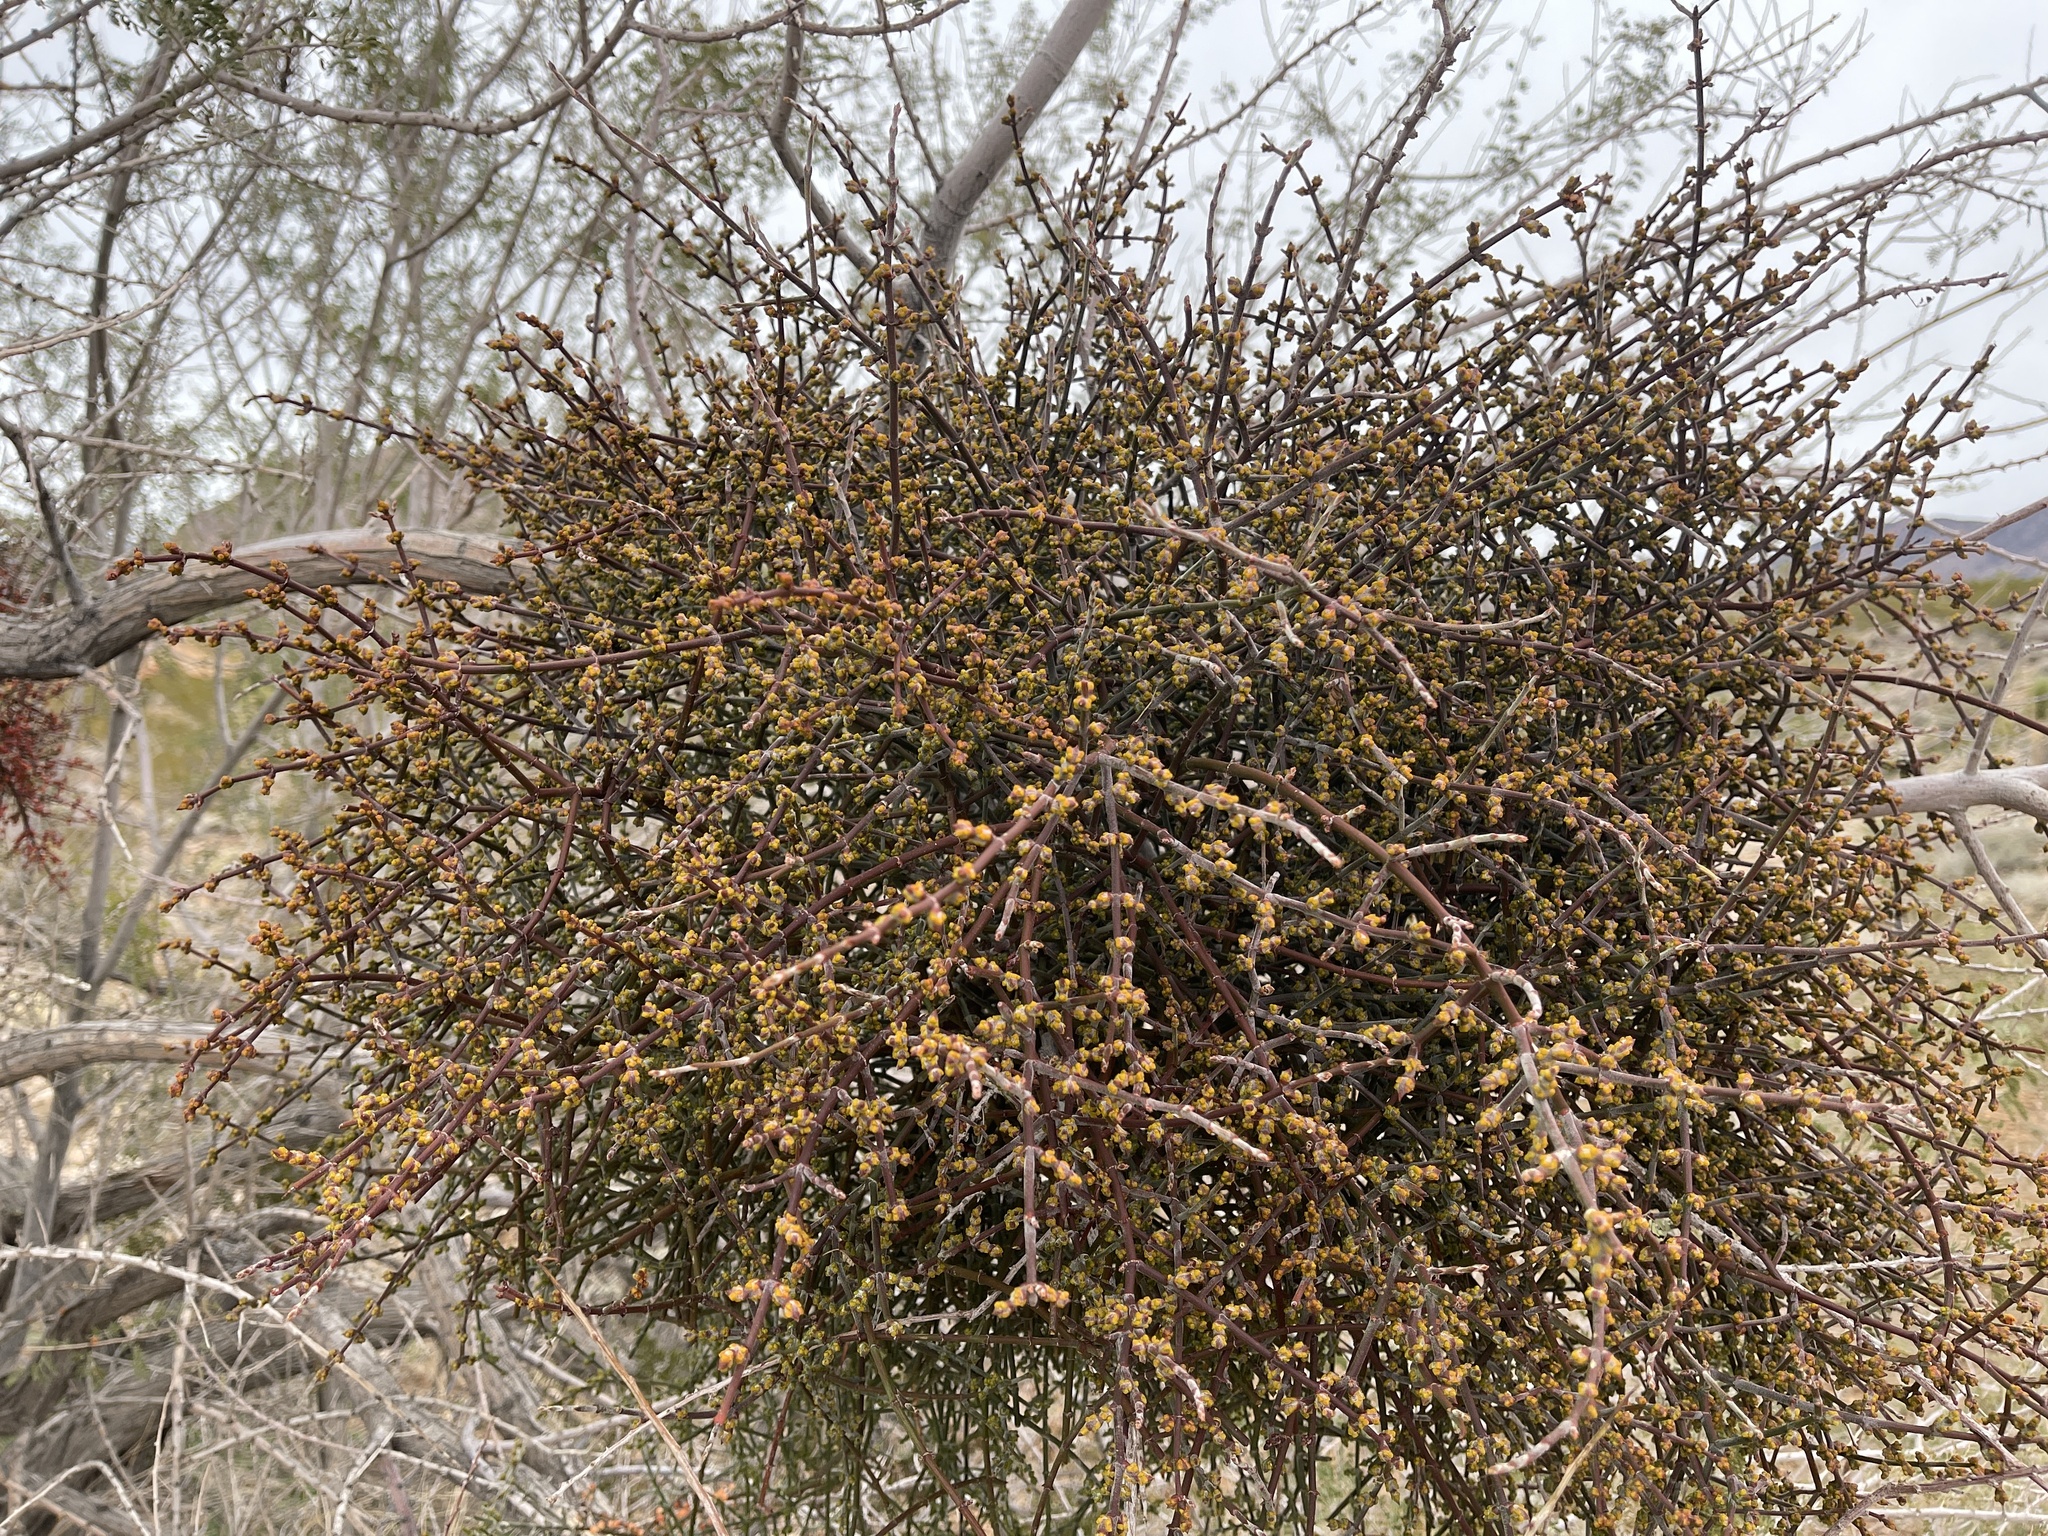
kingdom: Plantae
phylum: Tracheophyta
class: Magnoliopsida
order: Santalales
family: Viscaceae
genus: Phoradendron
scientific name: Phoradendron californicum
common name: Acacia mistletoe
